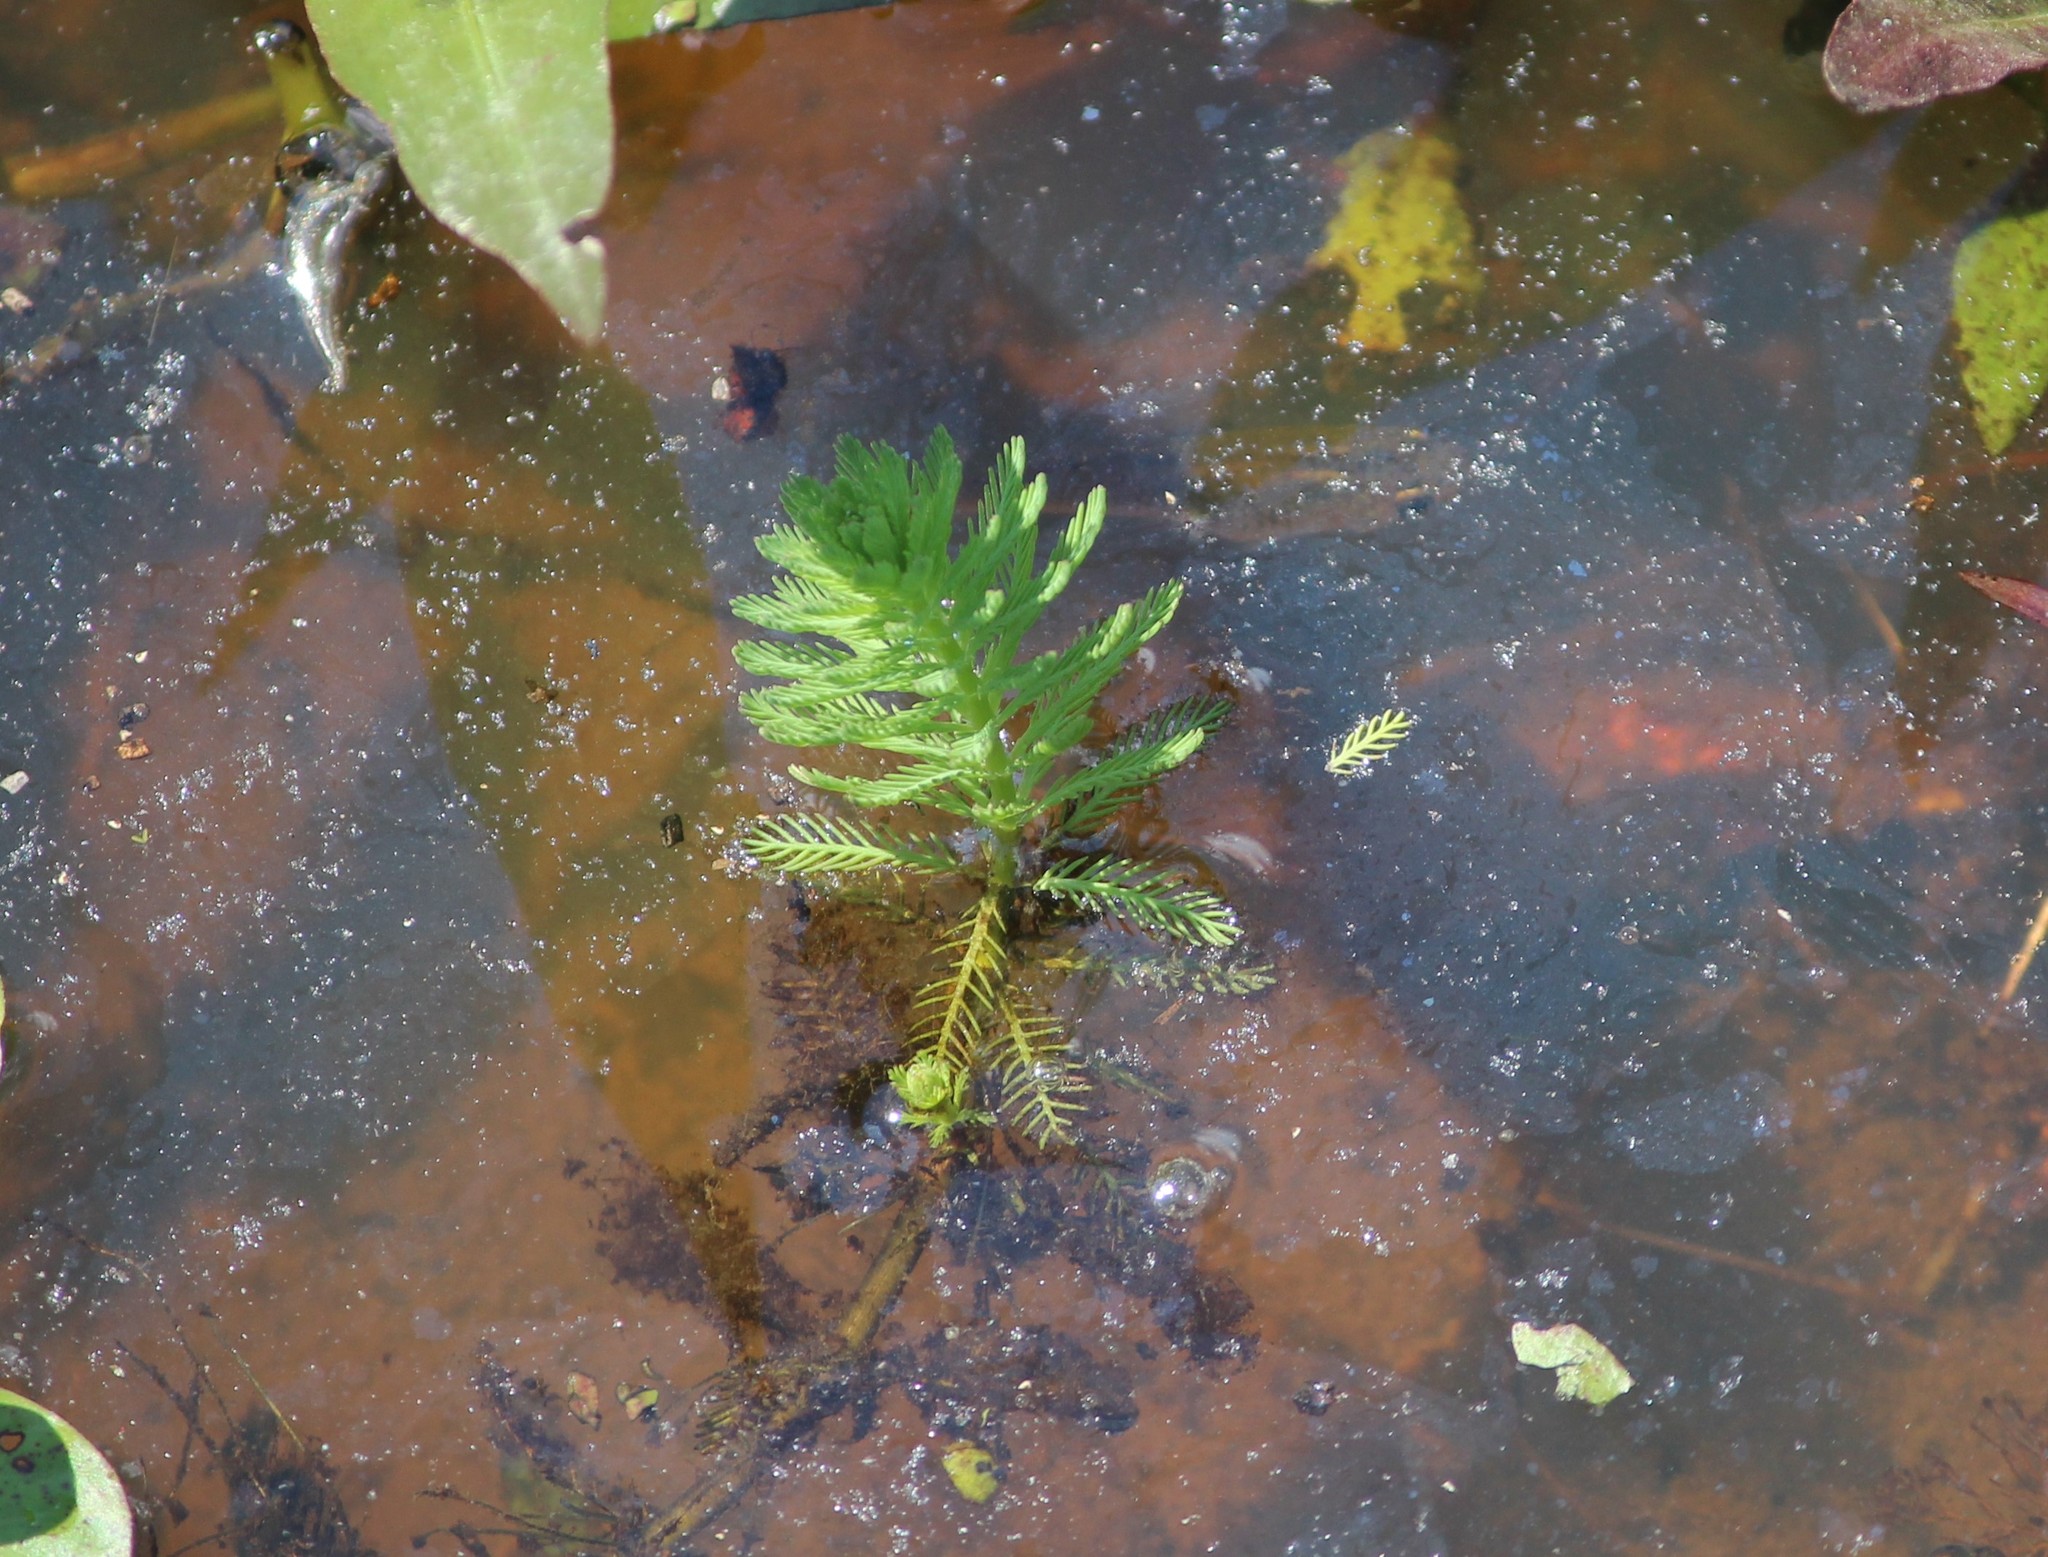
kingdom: Plantae
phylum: Tracheophyta
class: Magnoliopsida
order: Saxifragales
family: Haloragaceae
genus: Myriophyllum
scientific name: Myriophyllum aquaticum
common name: Parrot's feather
